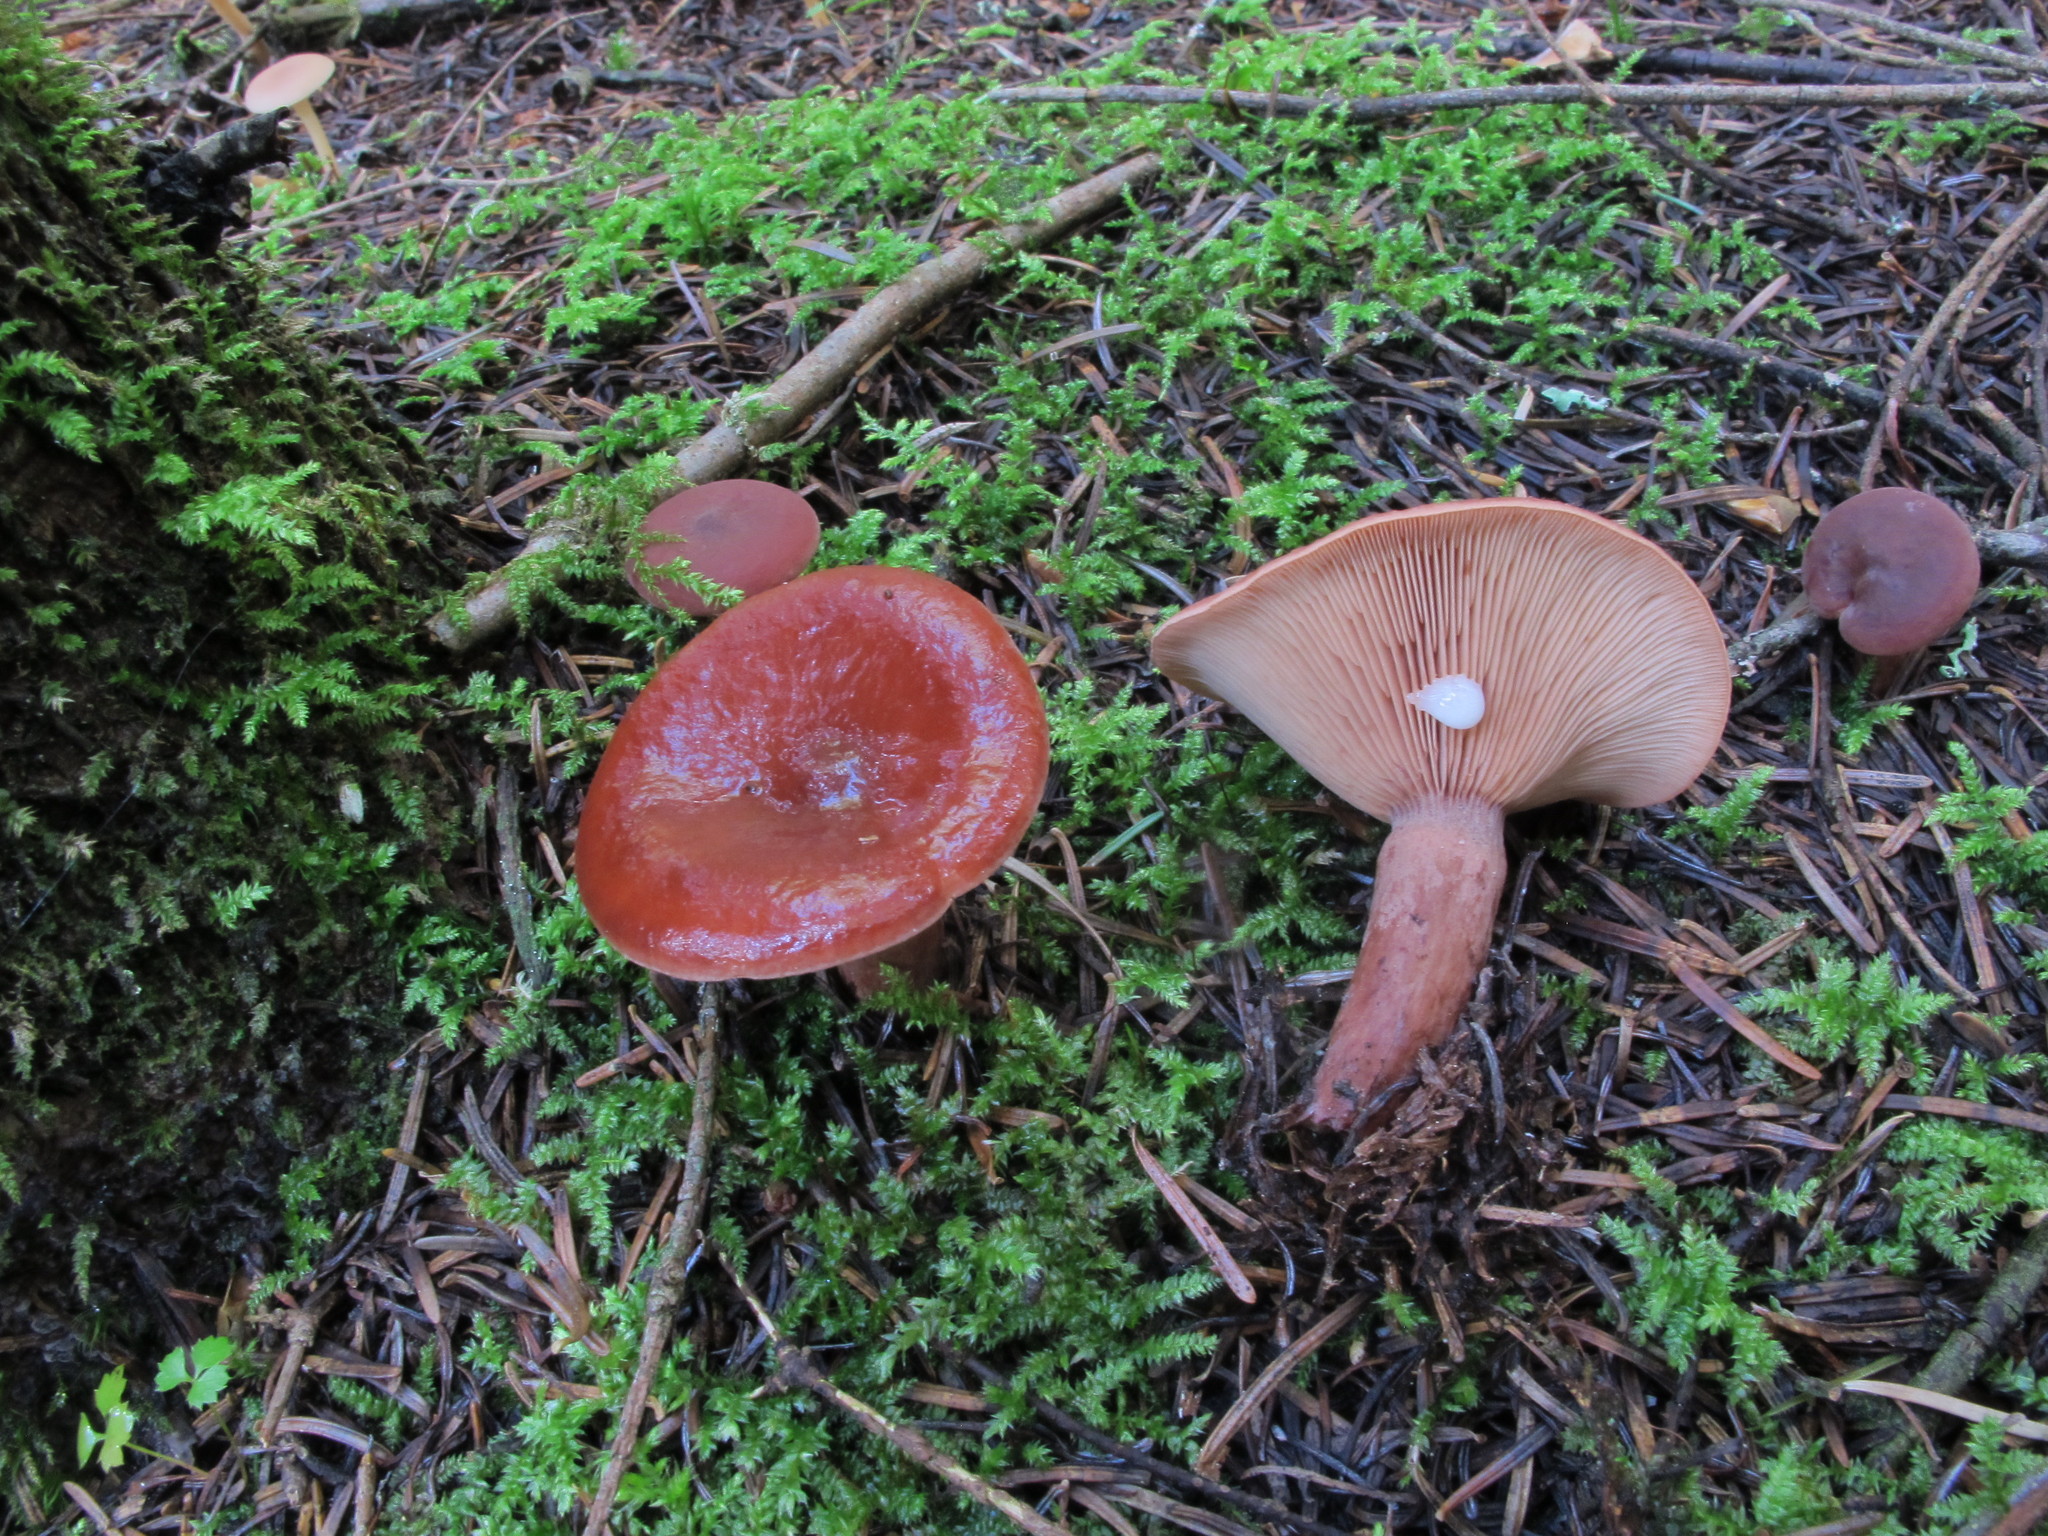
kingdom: Fungi
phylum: Basidiomycota
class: Agaricomycetes
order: Russulales
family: Russulaceae
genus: Lactarius
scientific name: Lactarius rufus
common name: Rufous milk-cap
